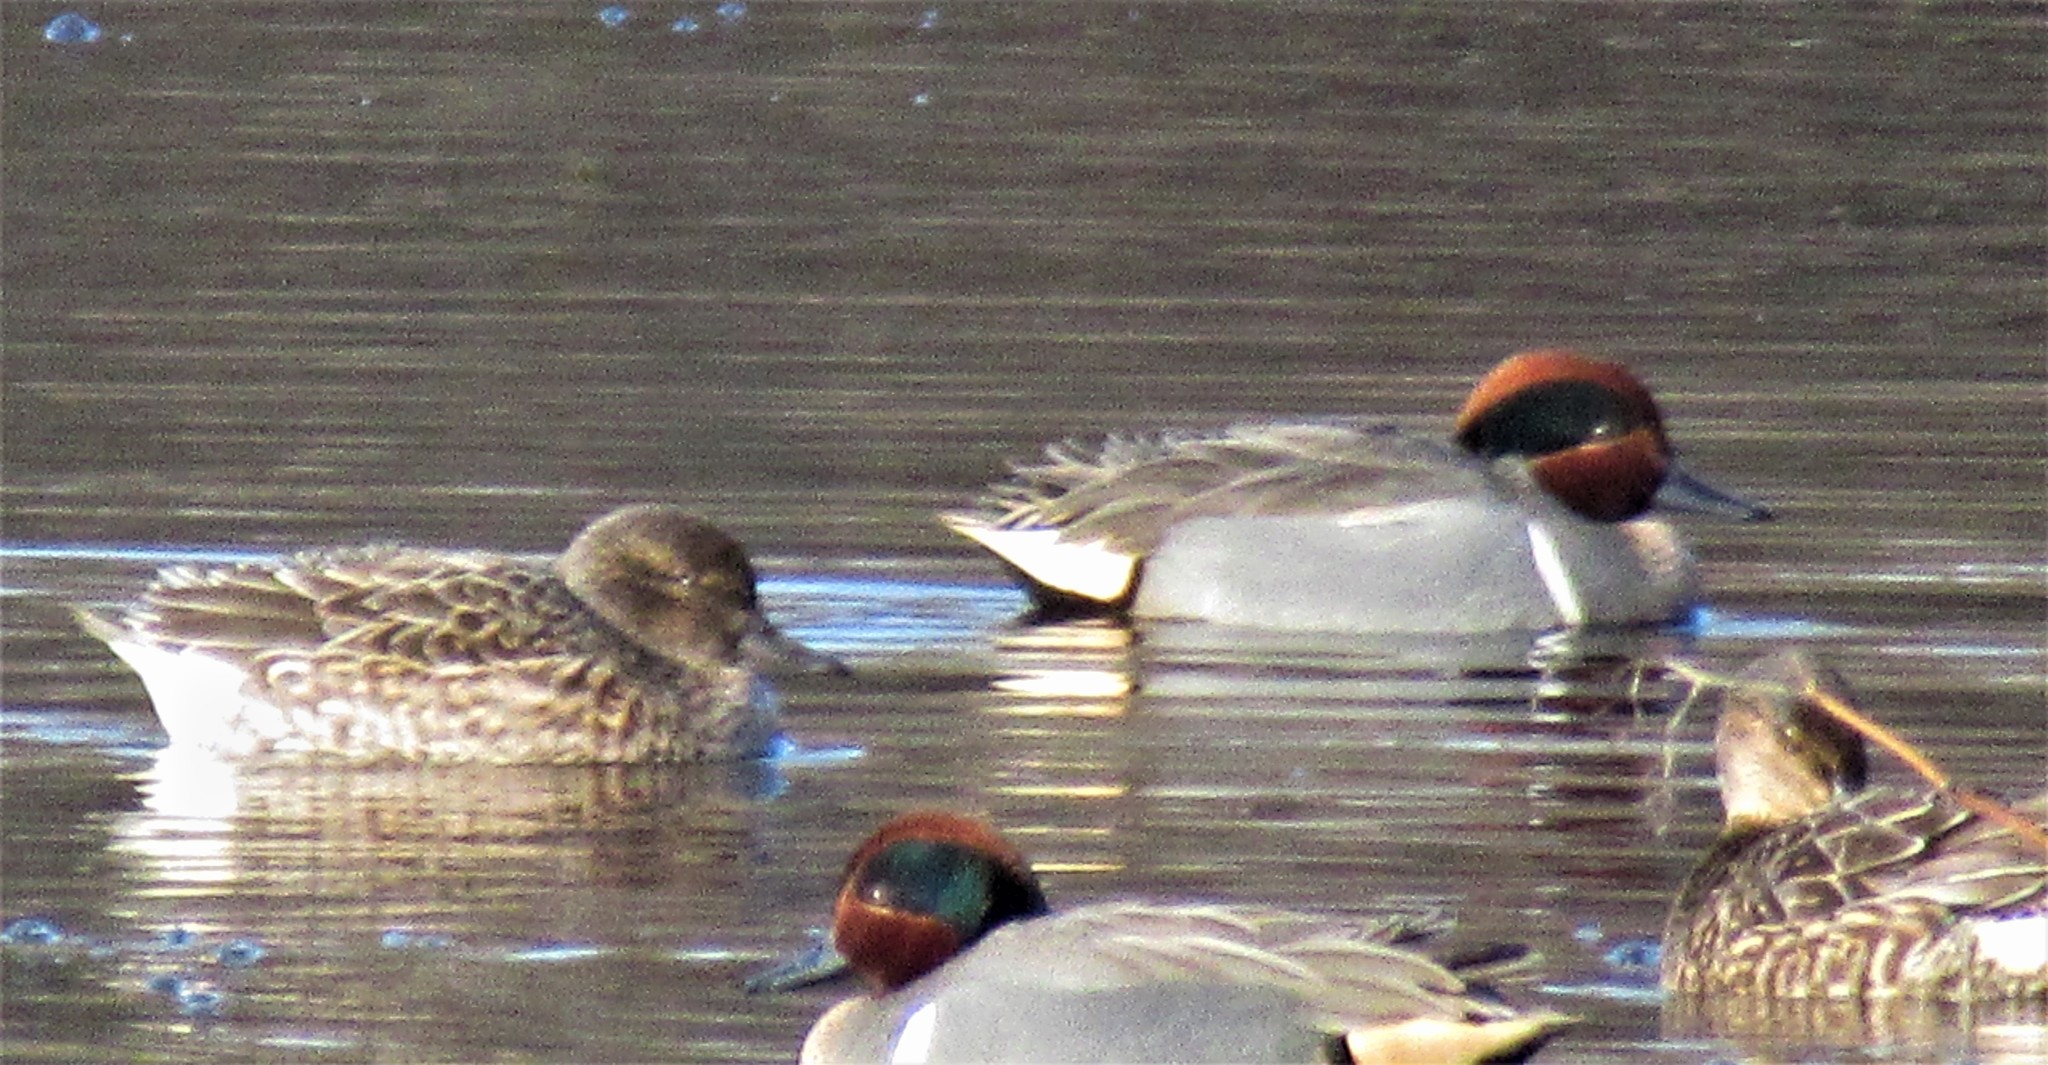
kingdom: Animalia
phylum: Chordata
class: Aves
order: Anseriformes
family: Anatidae
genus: Anas
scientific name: Anas crecca
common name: Eurasian teal
